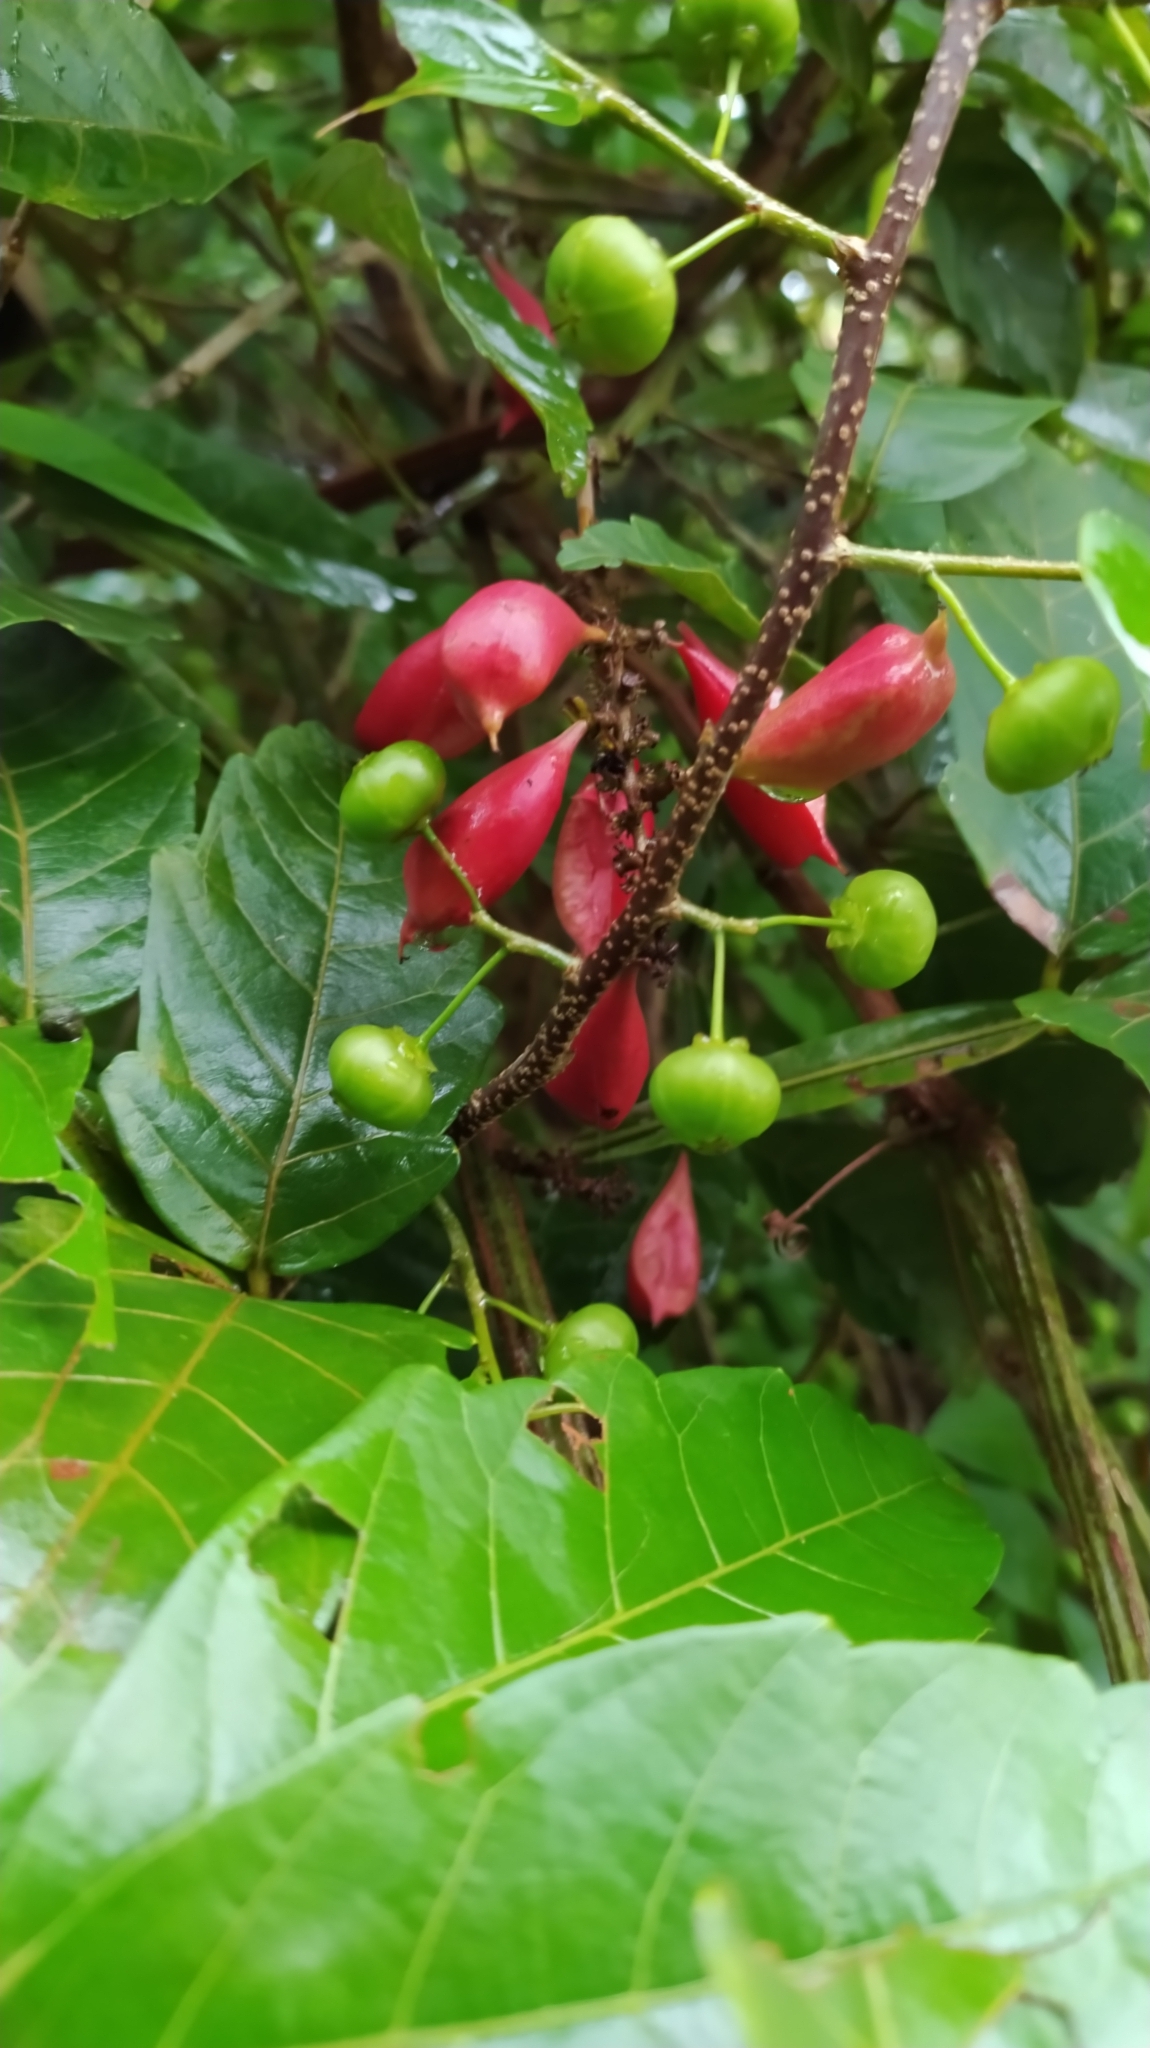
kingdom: Plantae
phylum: Tracheophyta
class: Magnoliopsida
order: Sapindales
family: Sapindaceae
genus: Paullinia
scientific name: Paullinia pinnata
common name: Barbasco
